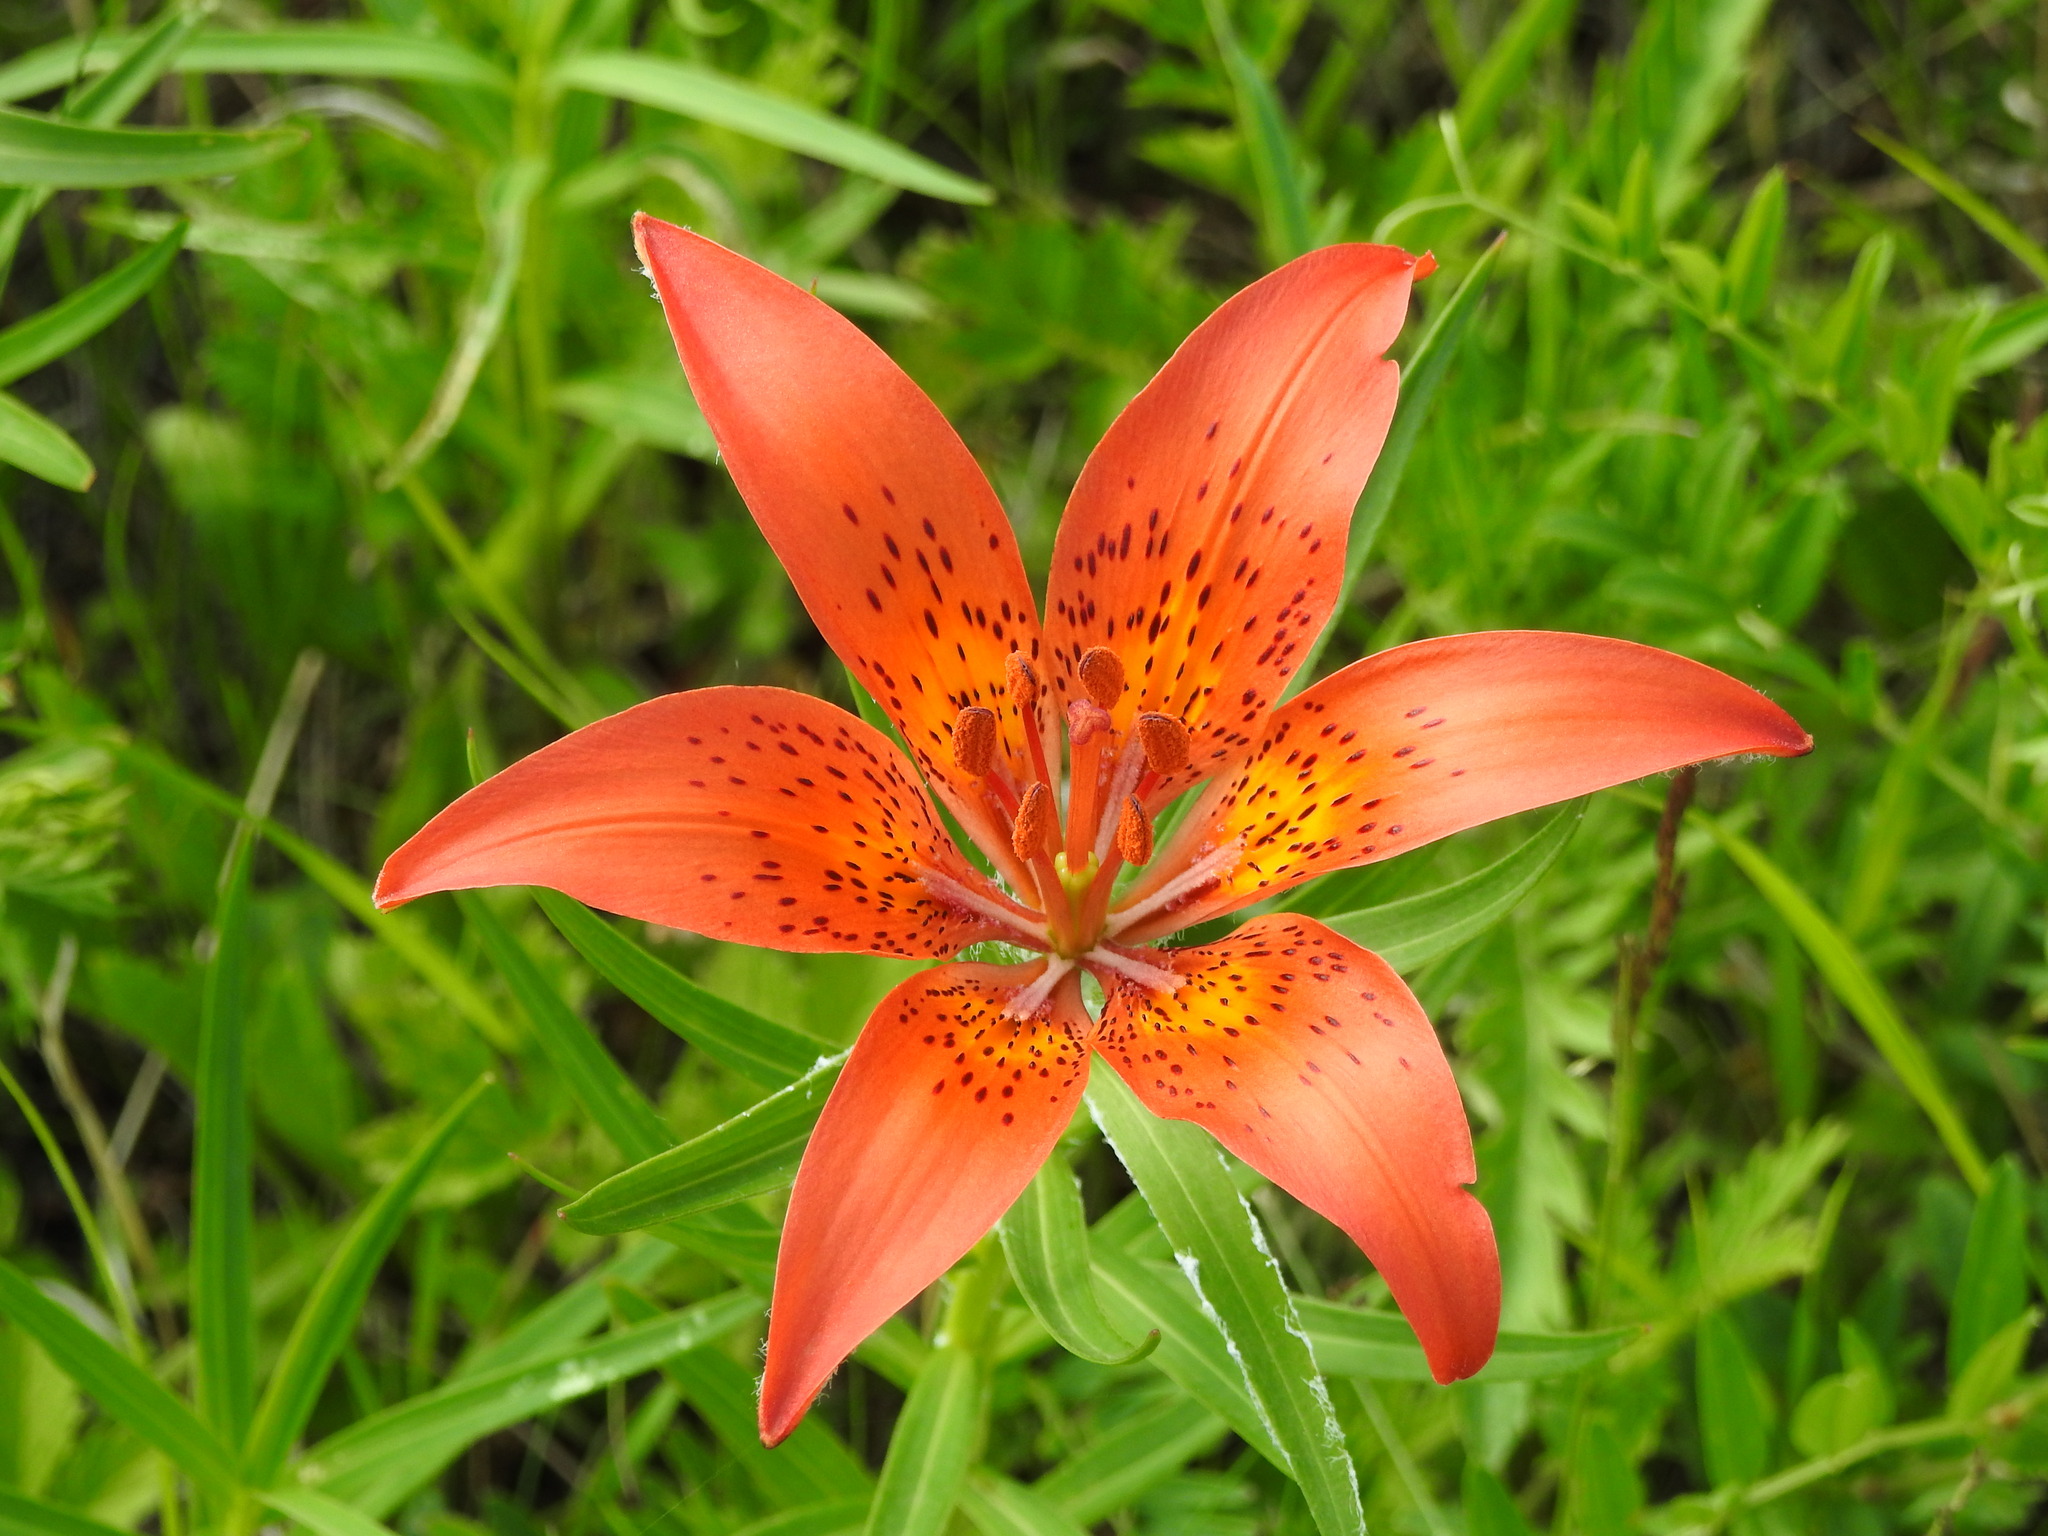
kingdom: Plantae
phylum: Tracheophyta
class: Liliopsida
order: Liliales
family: Liliaceae
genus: Lilium
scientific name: Lilium pensylvanicum
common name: Candlestick lily
